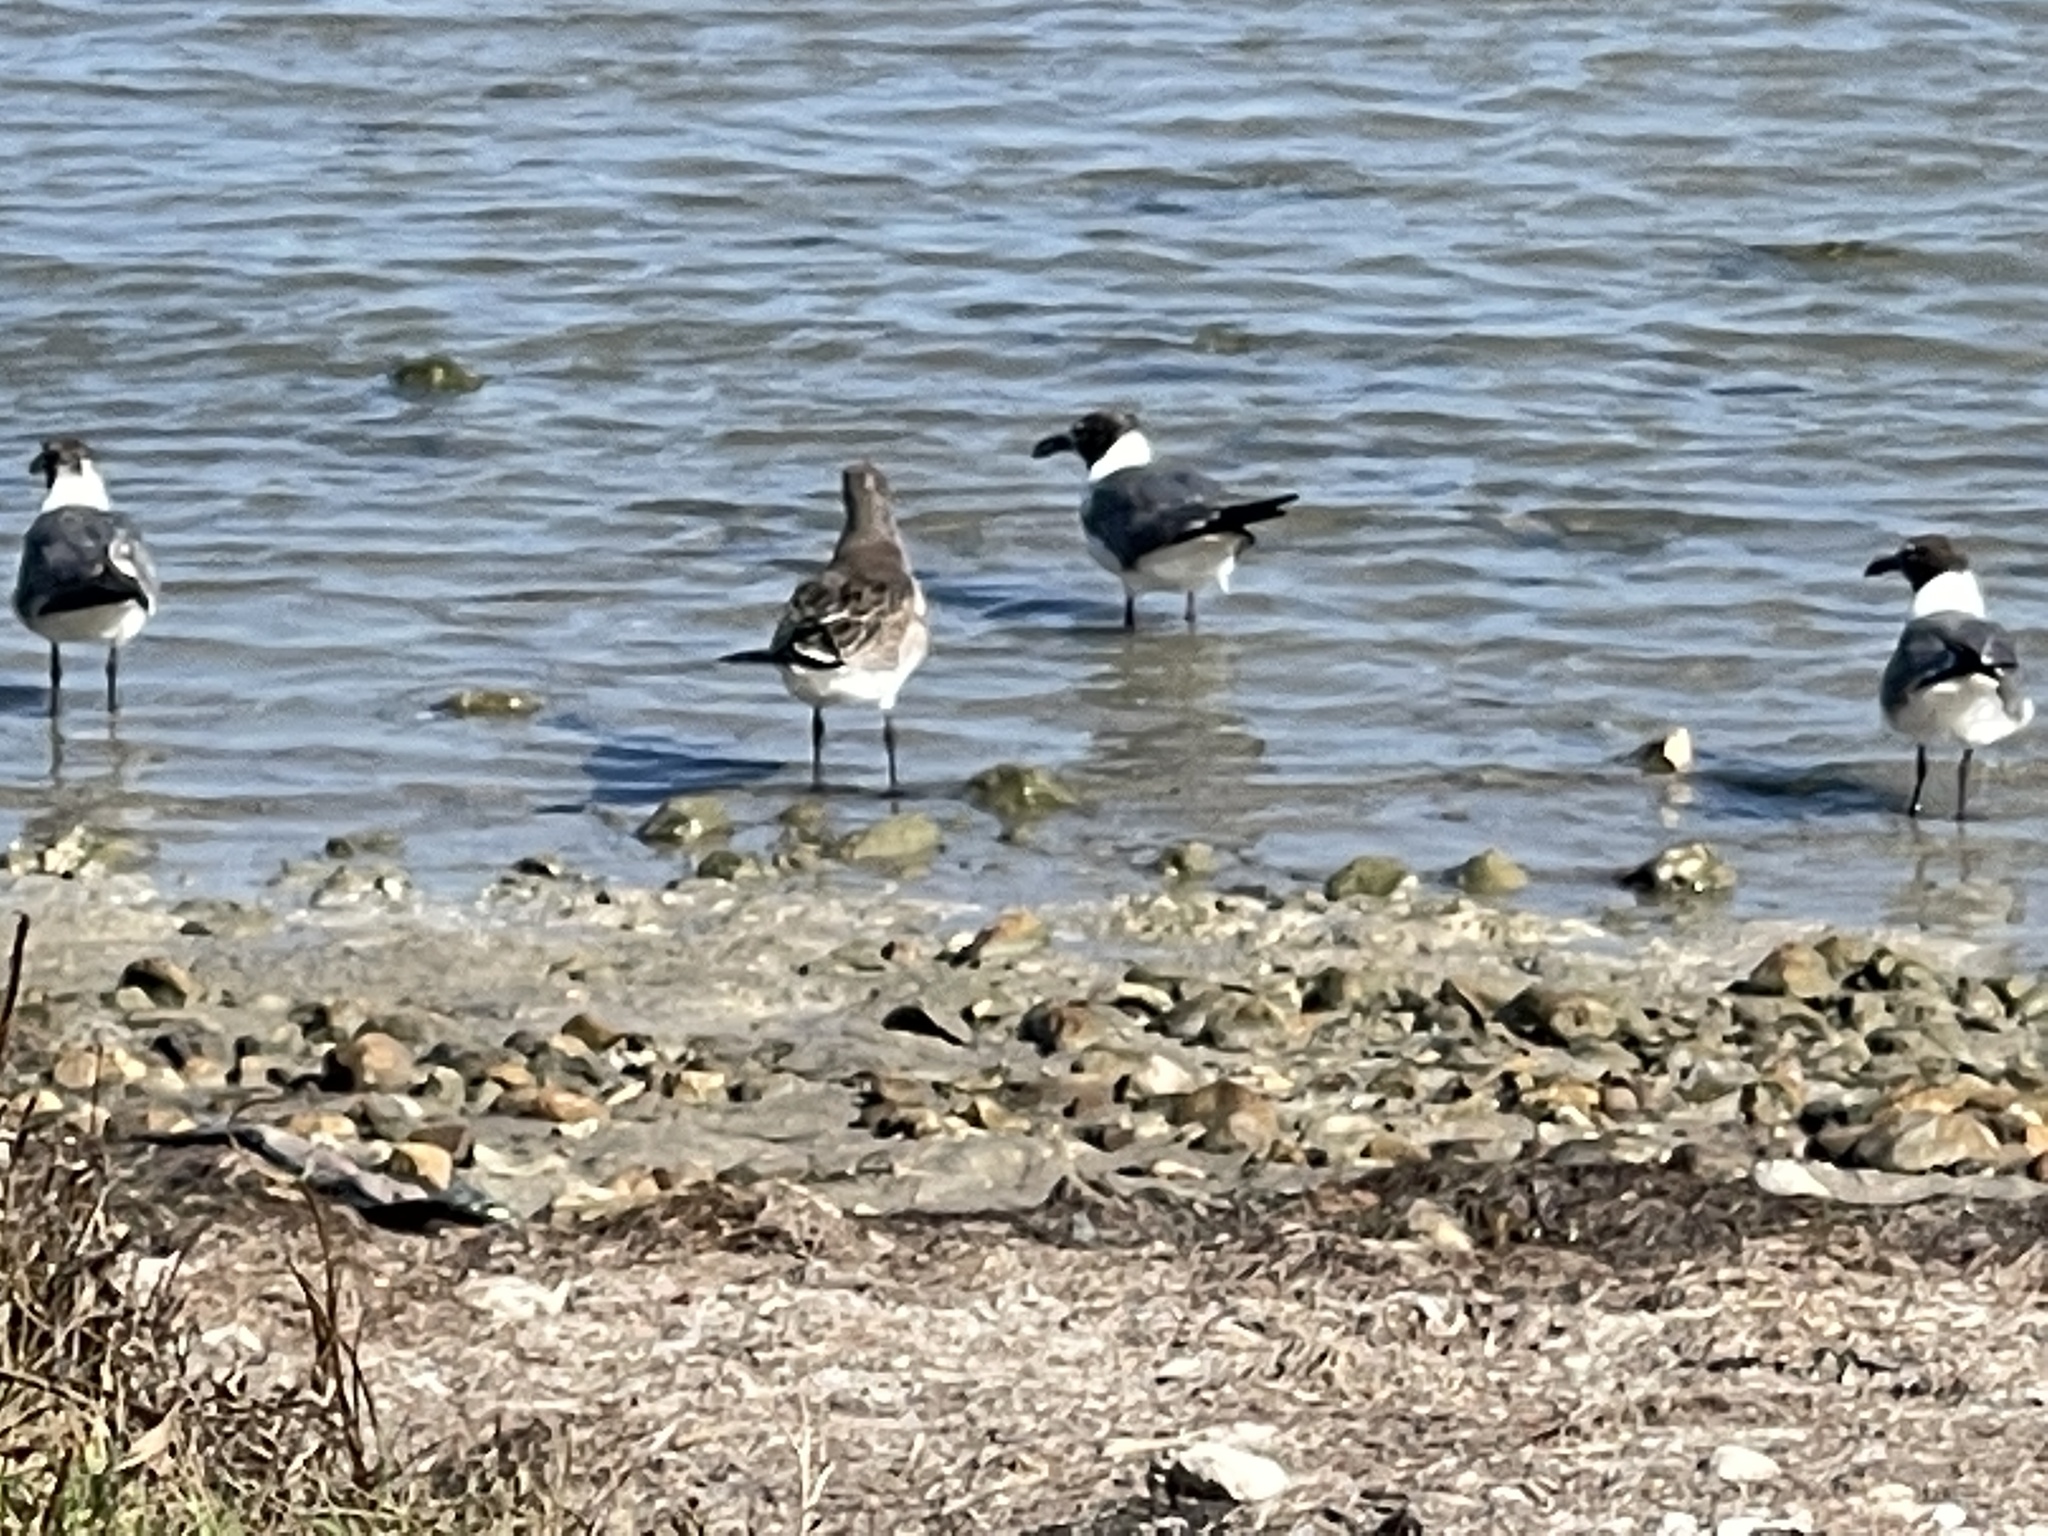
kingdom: Animalia
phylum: Chordata
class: Aves
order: Charadriiformes
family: Laridae
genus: Leucophaeus
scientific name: Leucophaeus atricilla
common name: Laughing gull
